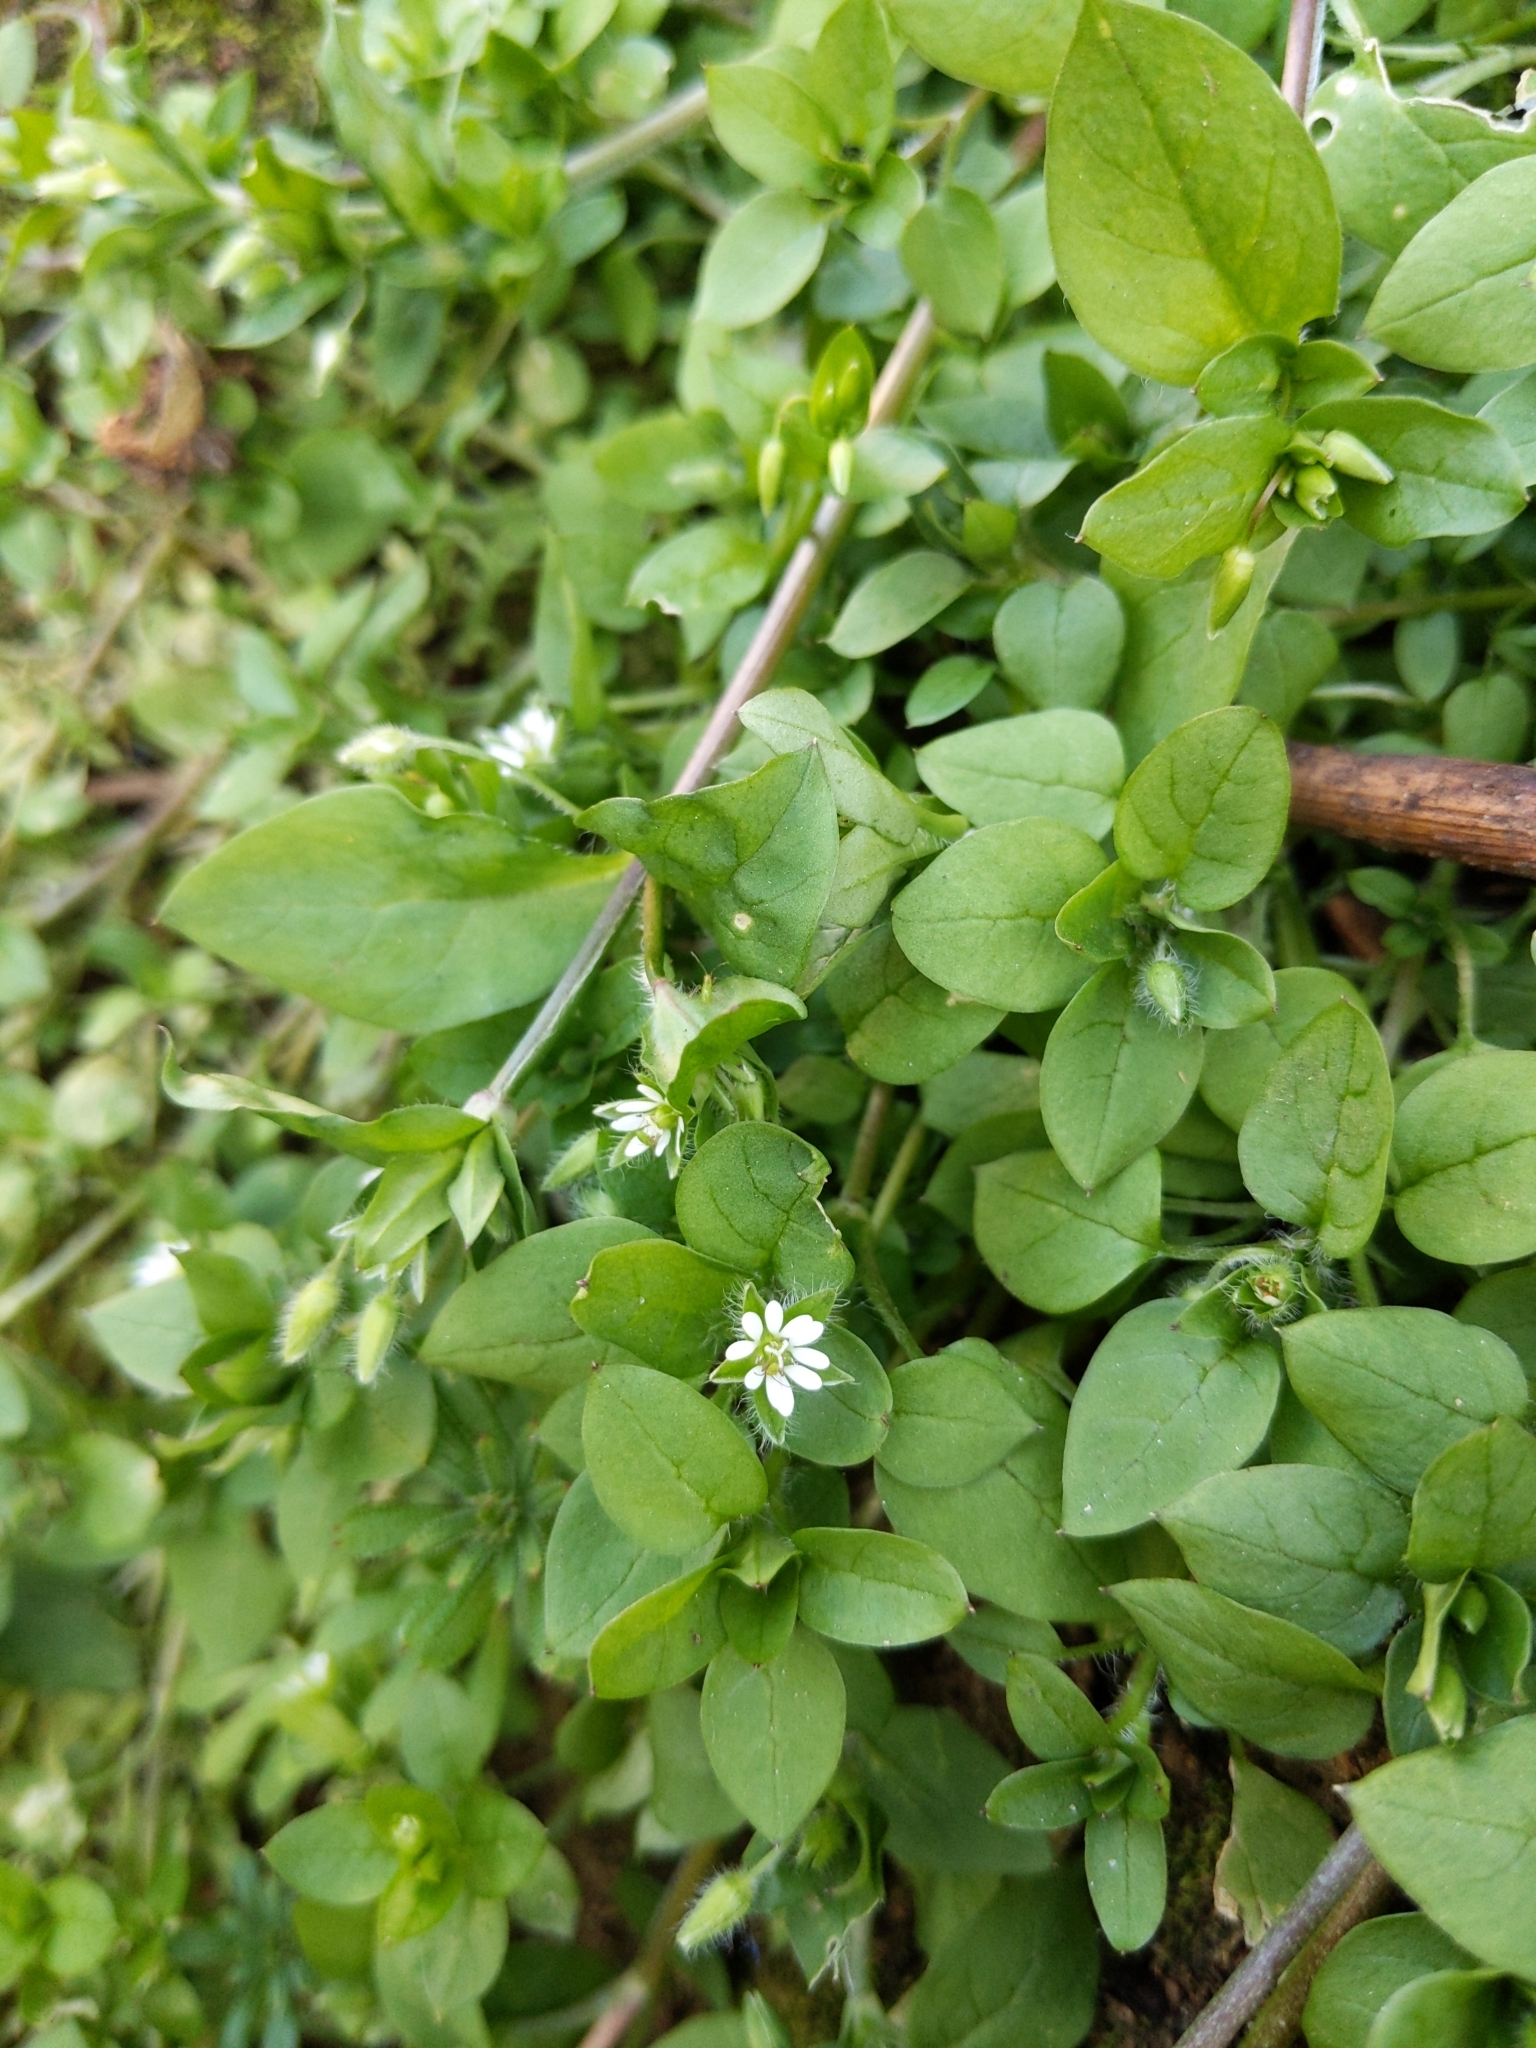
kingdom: Plantae
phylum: Tracheophyta
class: Magnoliopsida
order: Caryophyllales
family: Caryophyllaceae
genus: Stellaria
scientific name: Stellaria media
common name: Common chickweed
